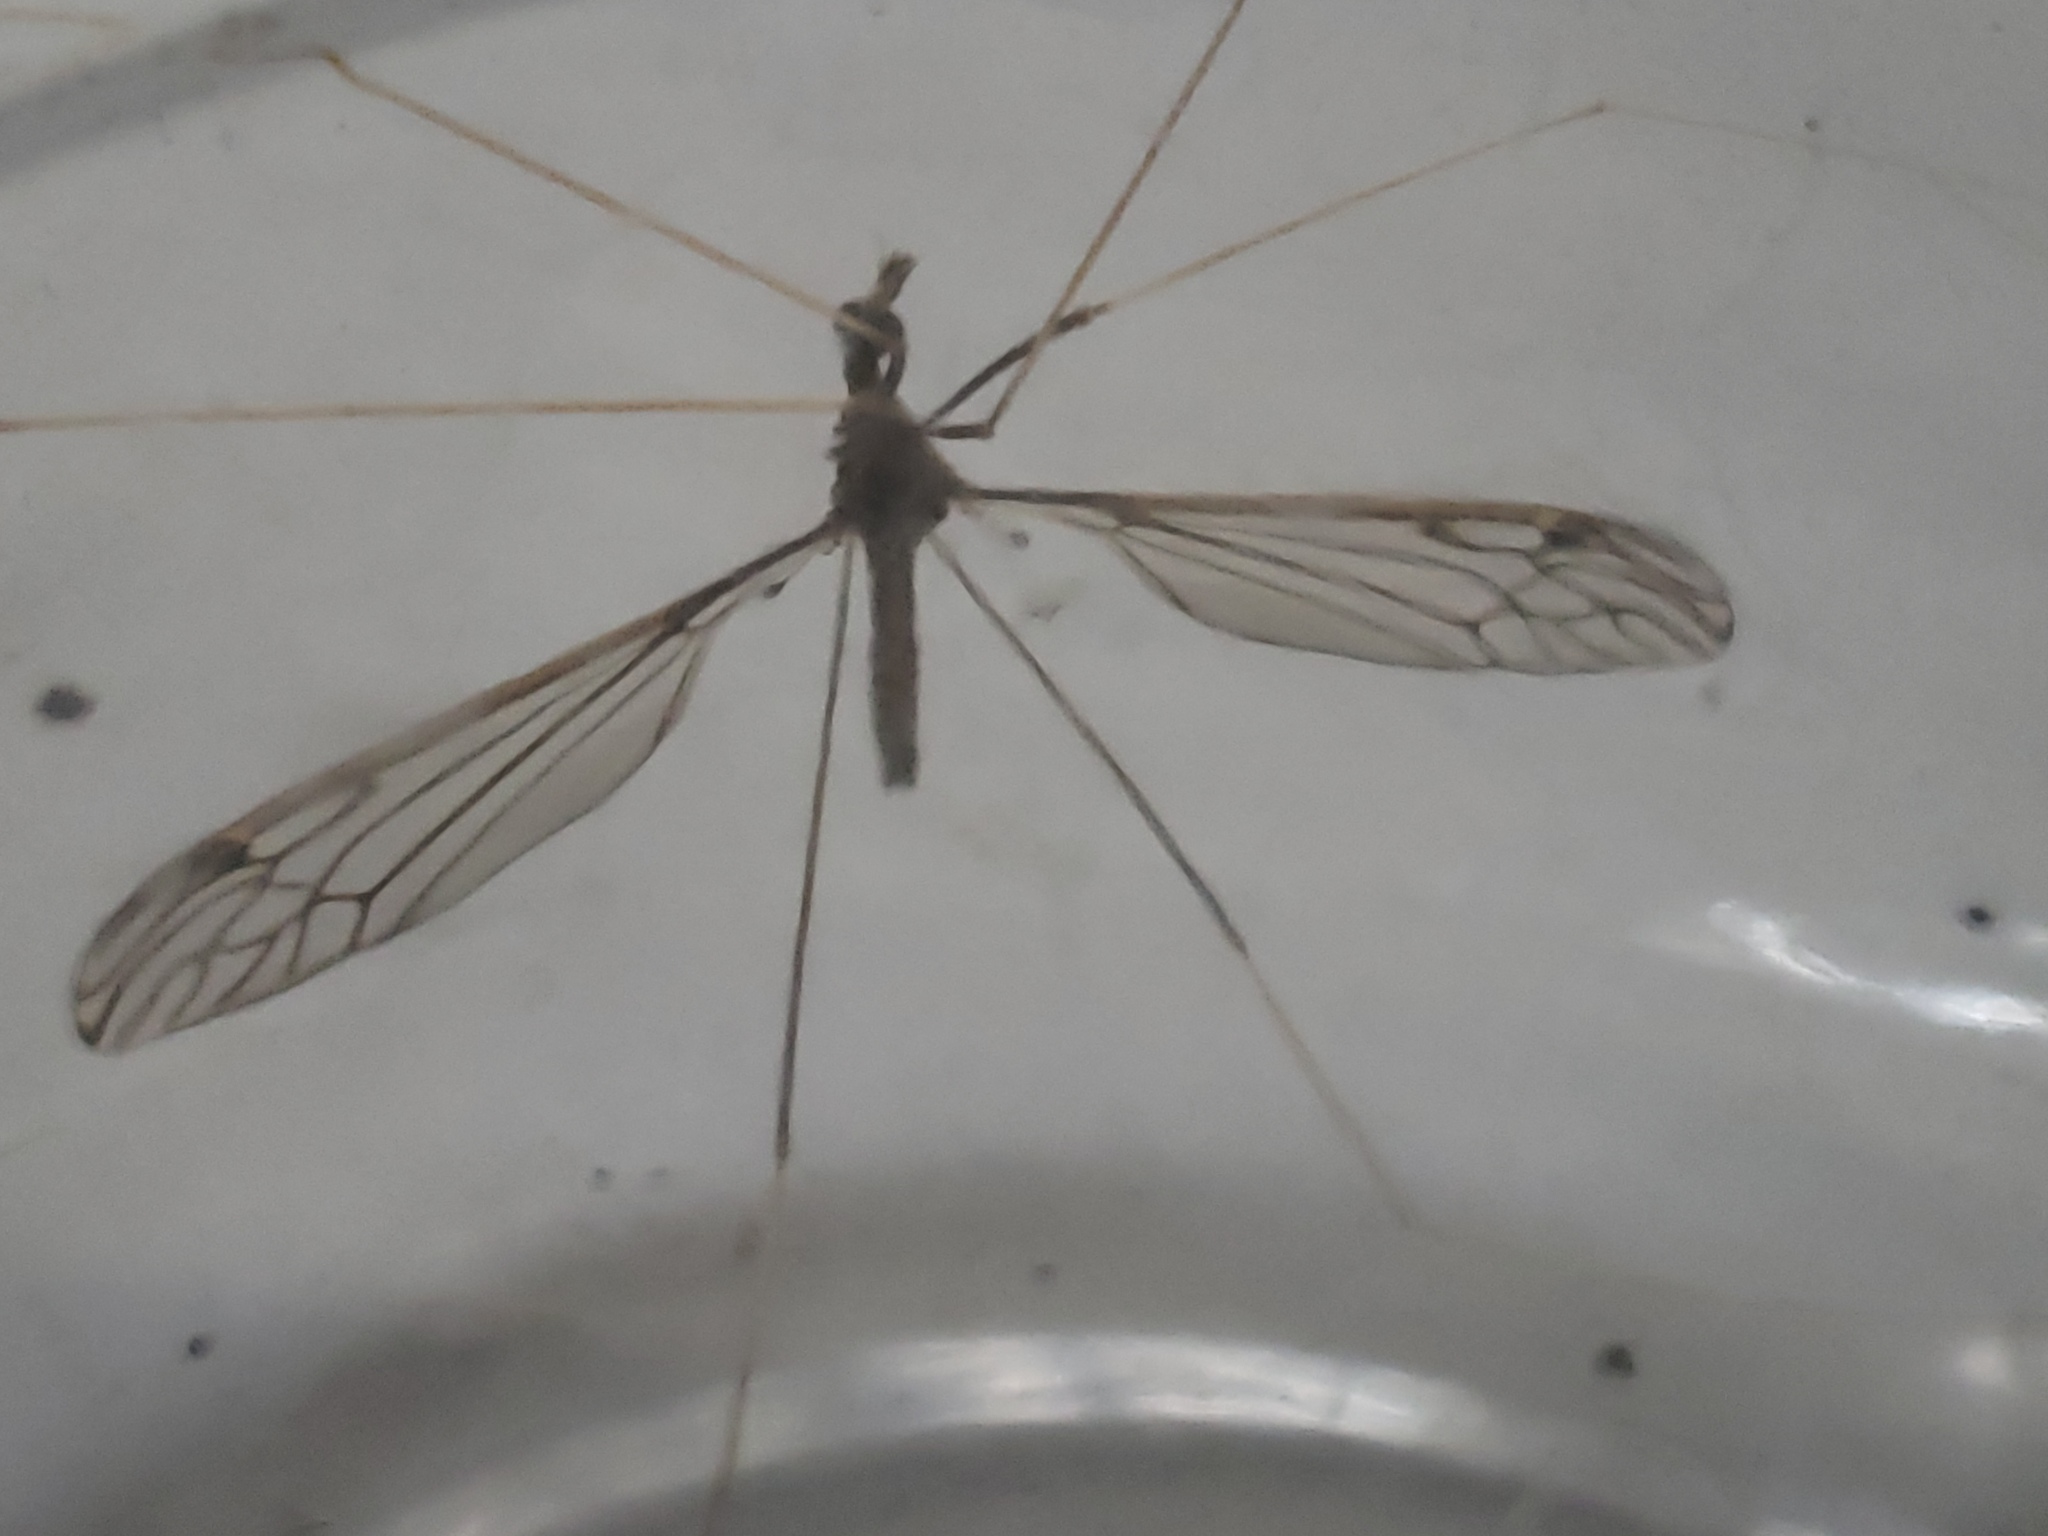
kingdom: Animalia
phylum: Arthropoda
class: Insecta
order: Diptera
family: Tipulidae
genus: Brachypremna
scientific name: Brachypremna dispellens
